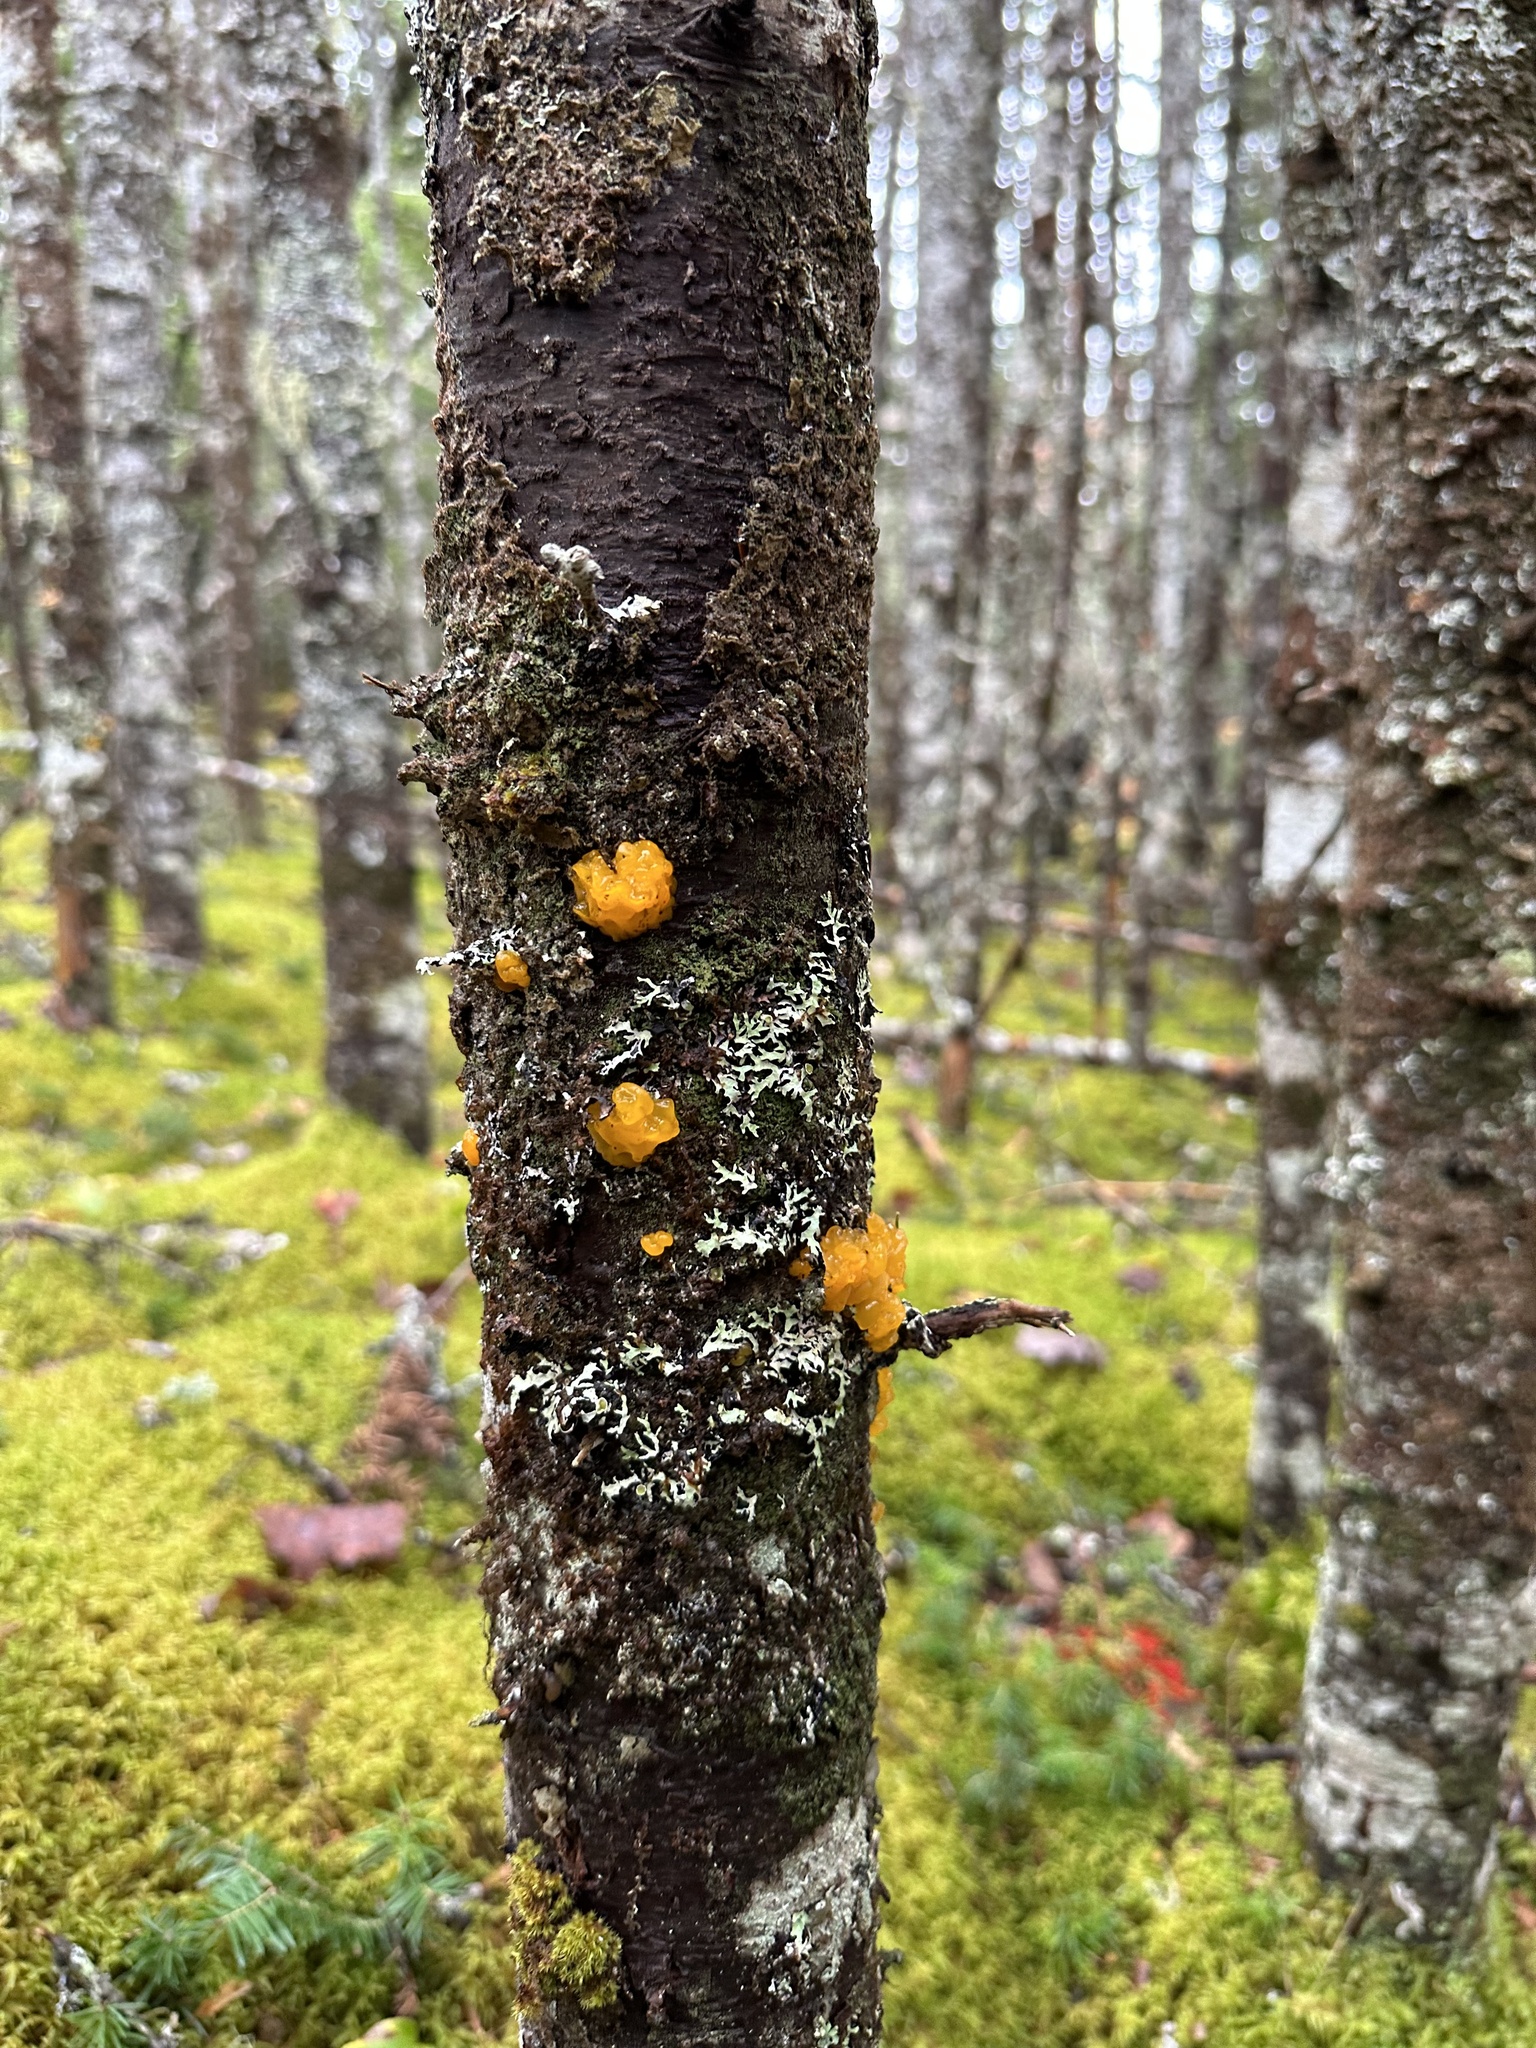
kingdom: Fungi
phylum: Basidiomycota
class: Dacrymycetes
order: Dacrymycetales
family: Dacrymycetaceae
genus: Dacrymyces
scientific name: Dacrymyces chrysospermus
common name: Orange jelly spot
